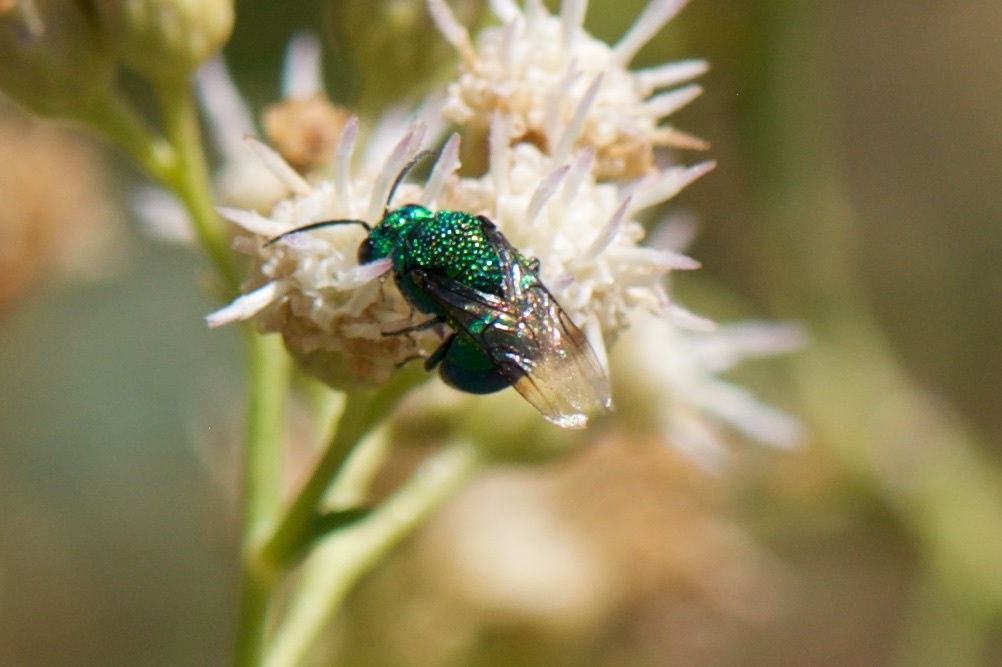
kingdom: Animalia
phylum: Arthropoda
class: Insecta
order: Hymenoptera
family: Chrysididae
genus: Holopyga
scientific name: Holopyga
